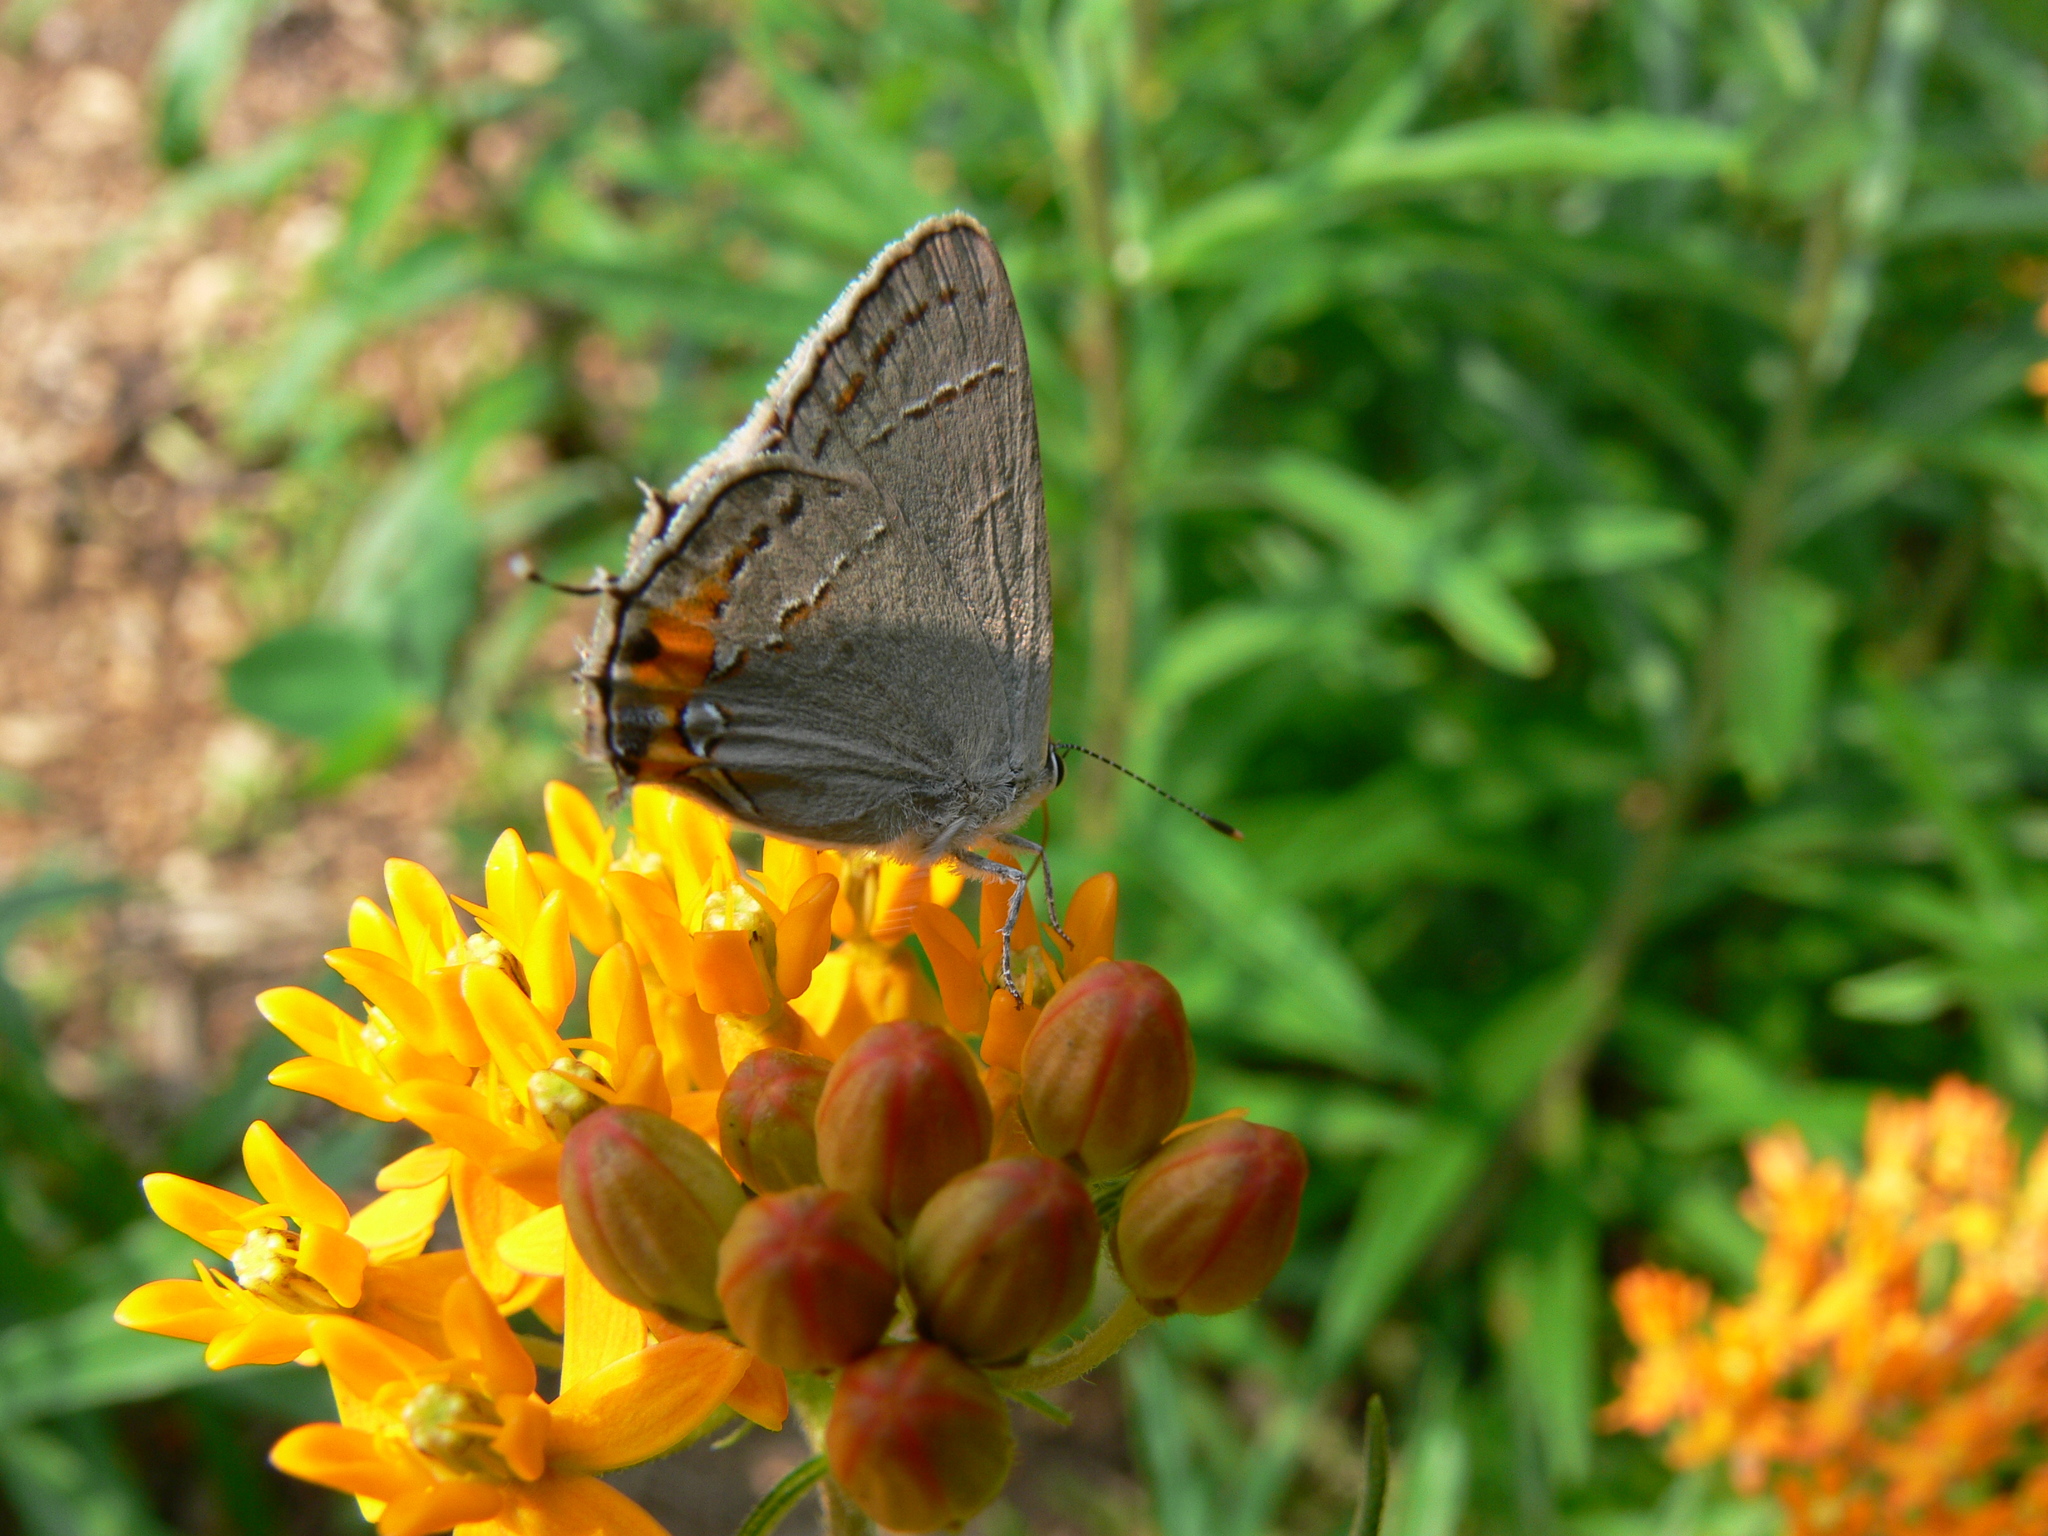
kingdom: Animalia
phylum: Arthropoda
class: Insecta
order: Lepidoptera
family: Lycaenidae
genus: Strymon
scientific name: Strymon melinus
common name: Gray hairstreak
